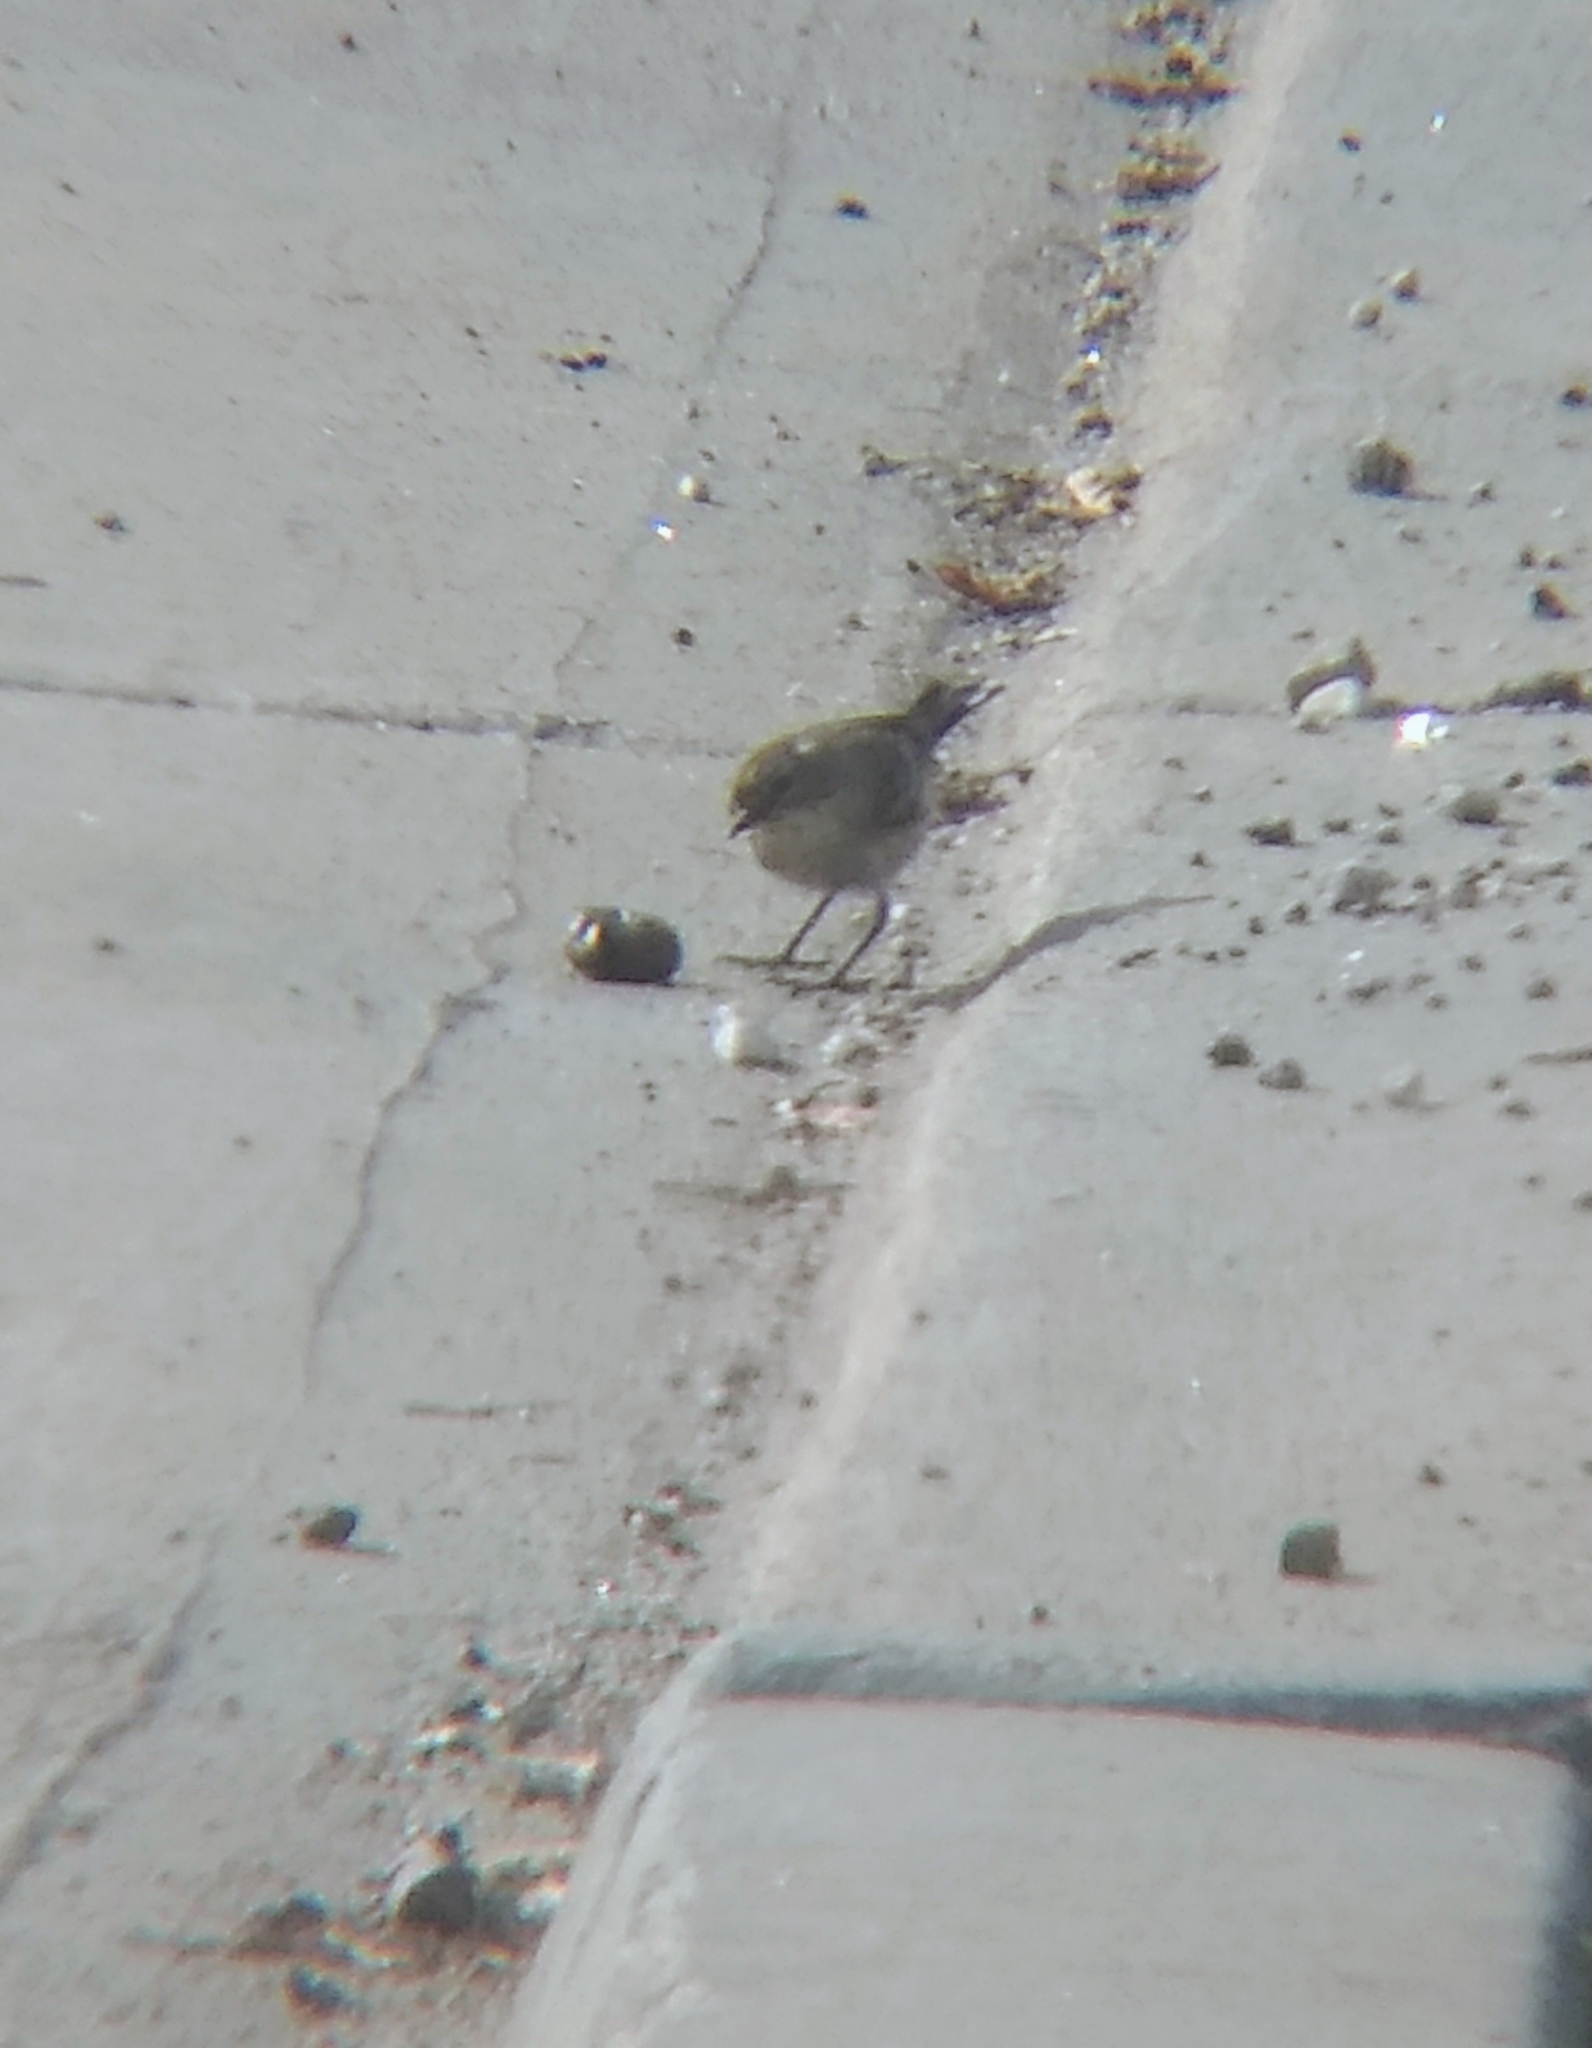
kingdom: Animalia
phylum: Chordata
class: Aves
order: Passeriformes
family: Parulidae
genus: Setophaga
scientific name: Setophaga coronata
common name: Myrtle warbler
